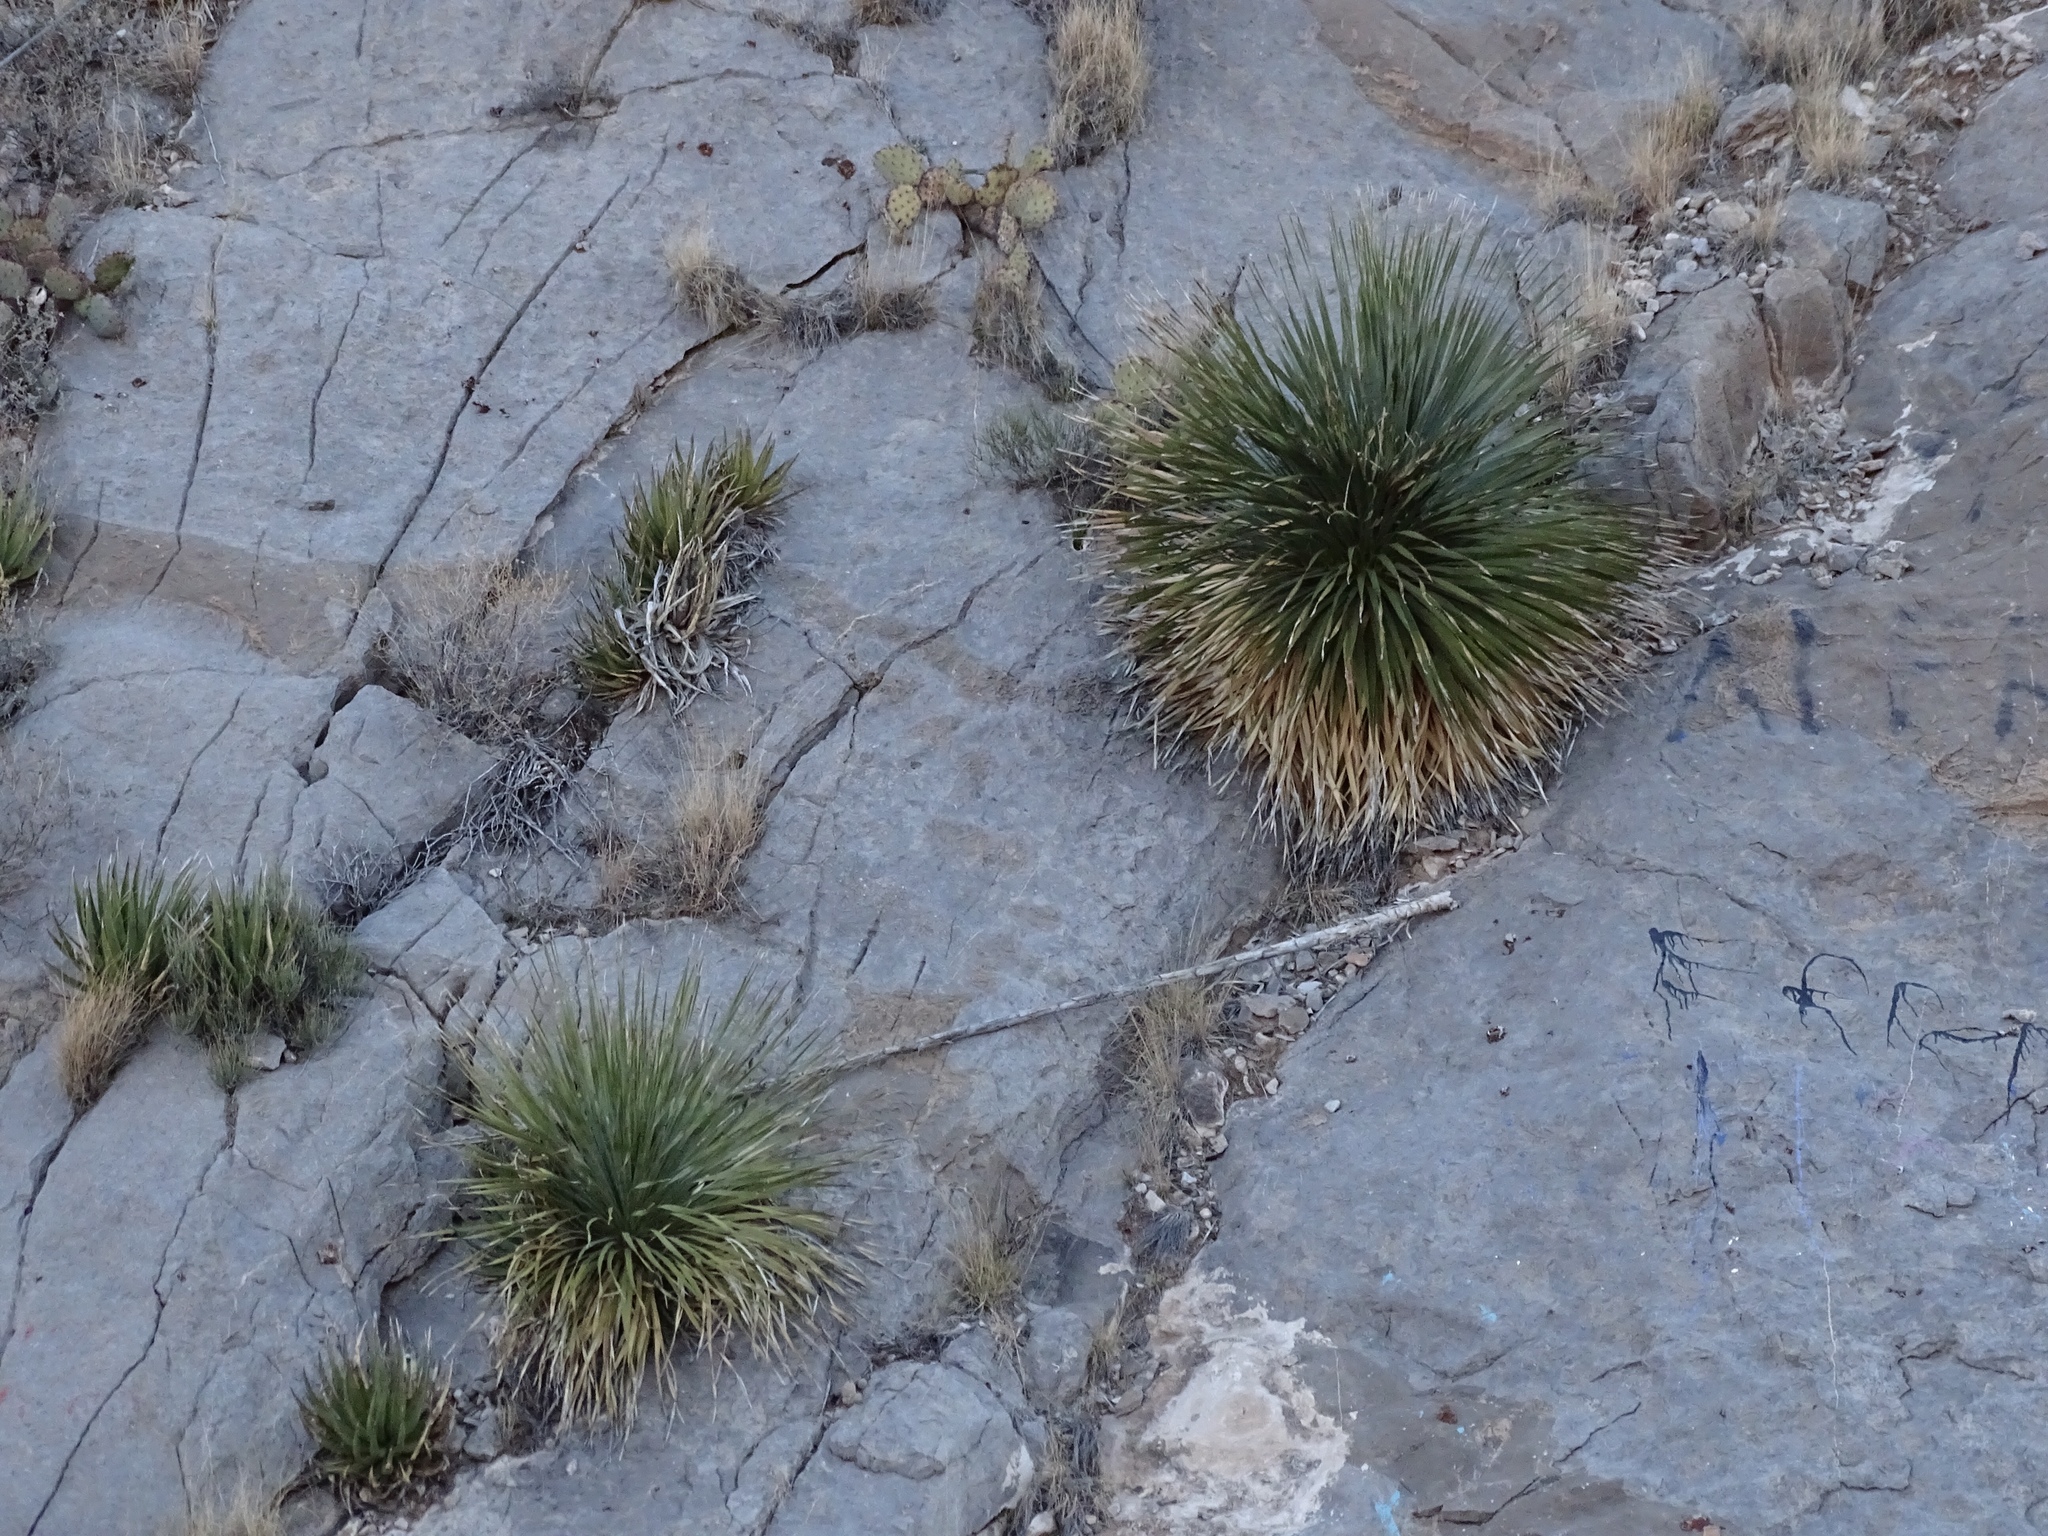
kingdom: Plantae
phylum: Tracheophyta
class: Liliopsida
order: Asparagales
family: Asparagaceae
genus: Dasylirion
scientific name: Dasylirion wheeleri
